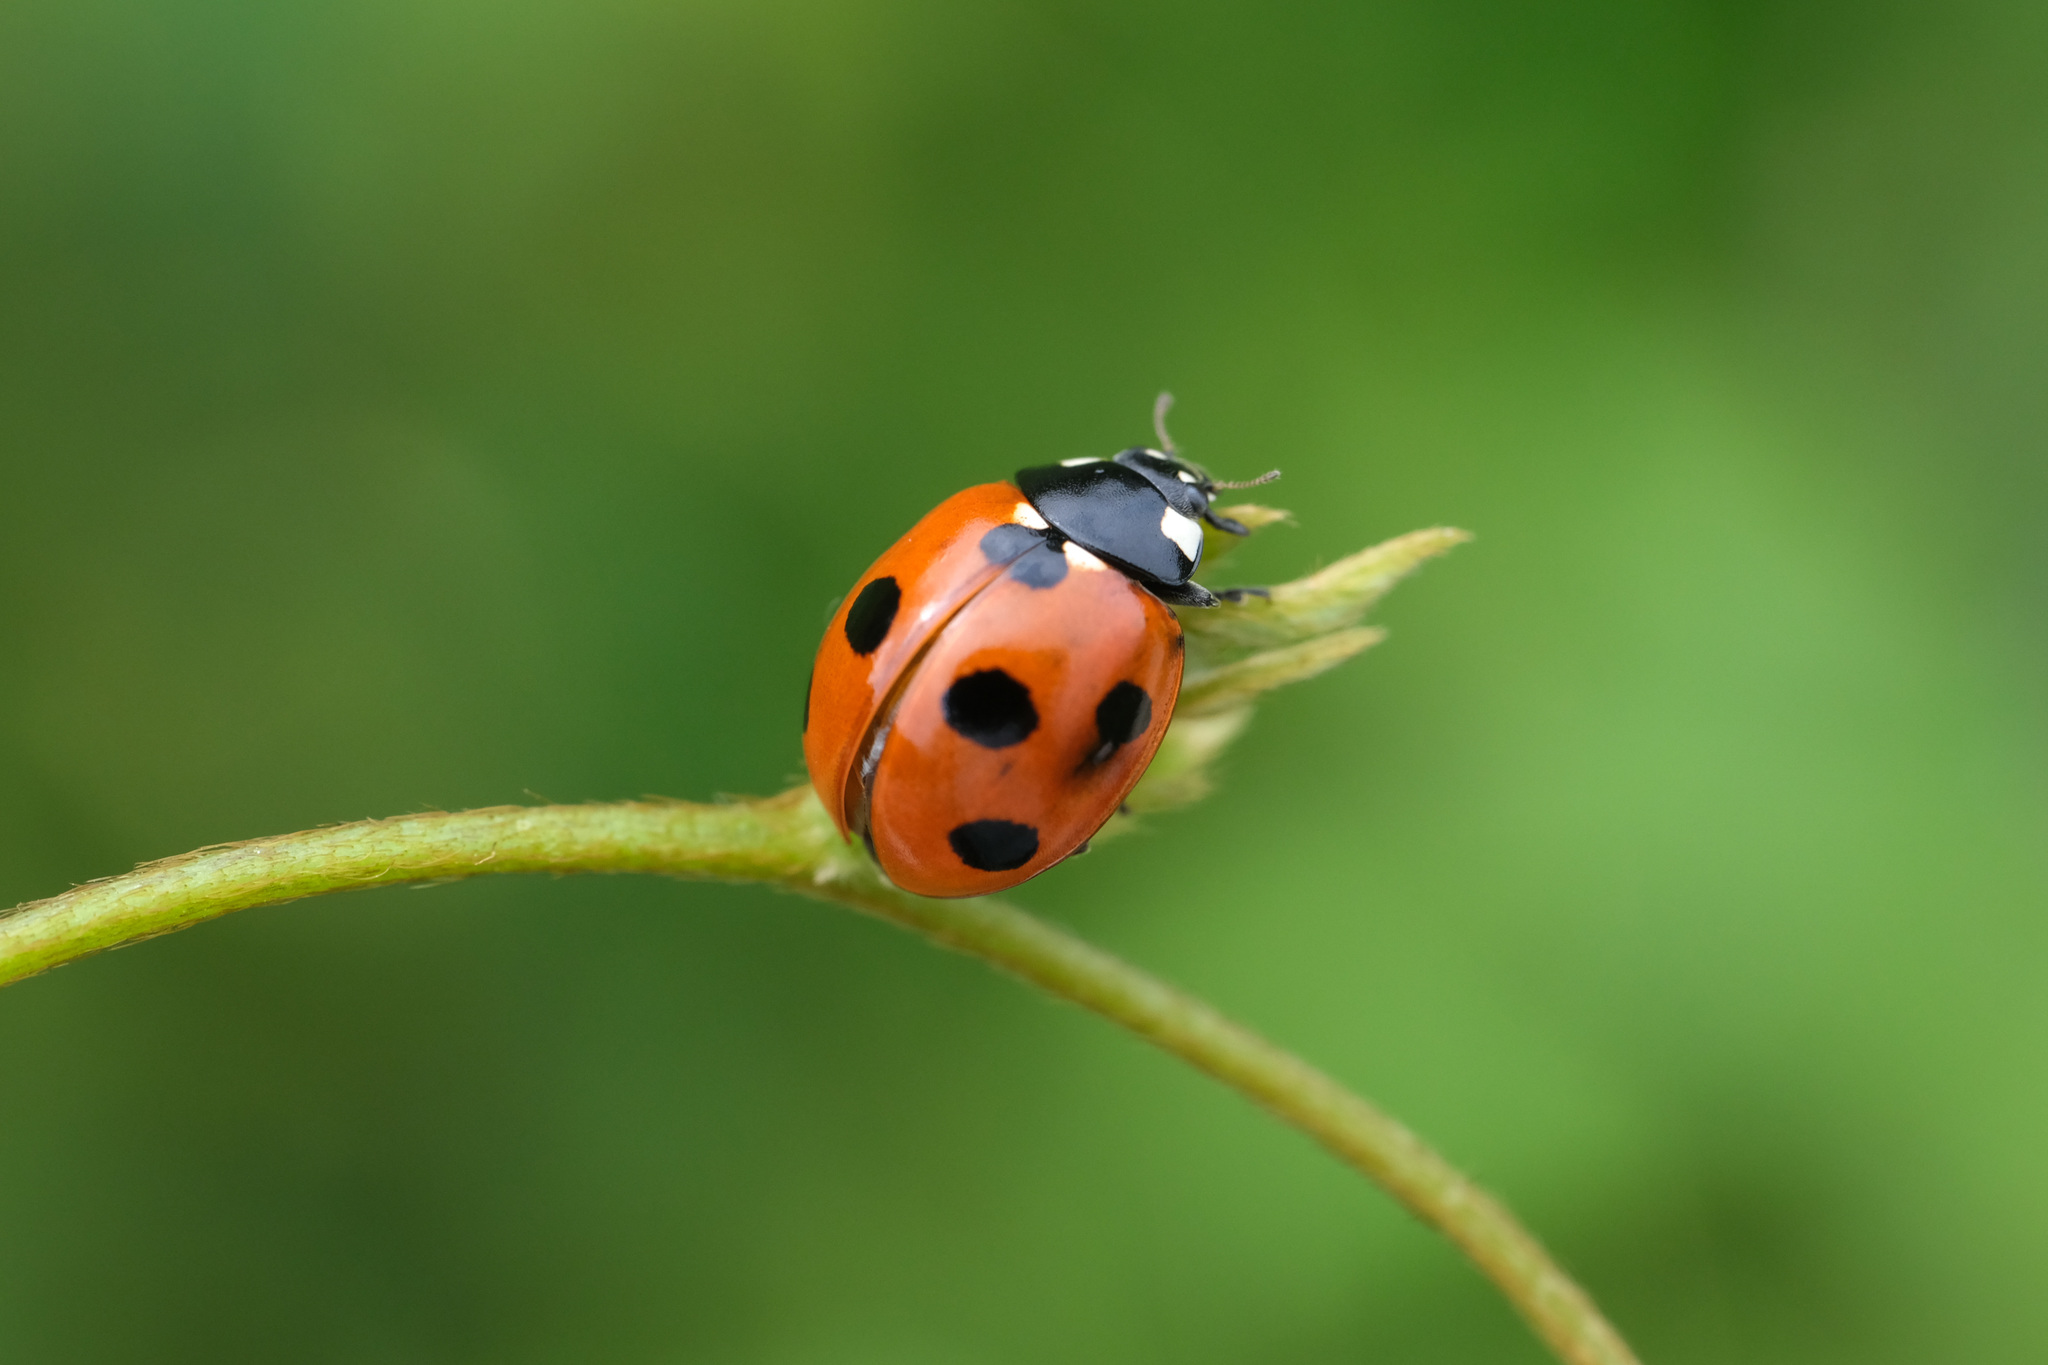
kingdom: Animalia
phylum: Arthropoda
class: Insecta
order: Coleoptera
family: Coccinellidae
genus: Coccinella
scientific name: Coccinella septempunctata
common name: Sevenspotted lady beetle
